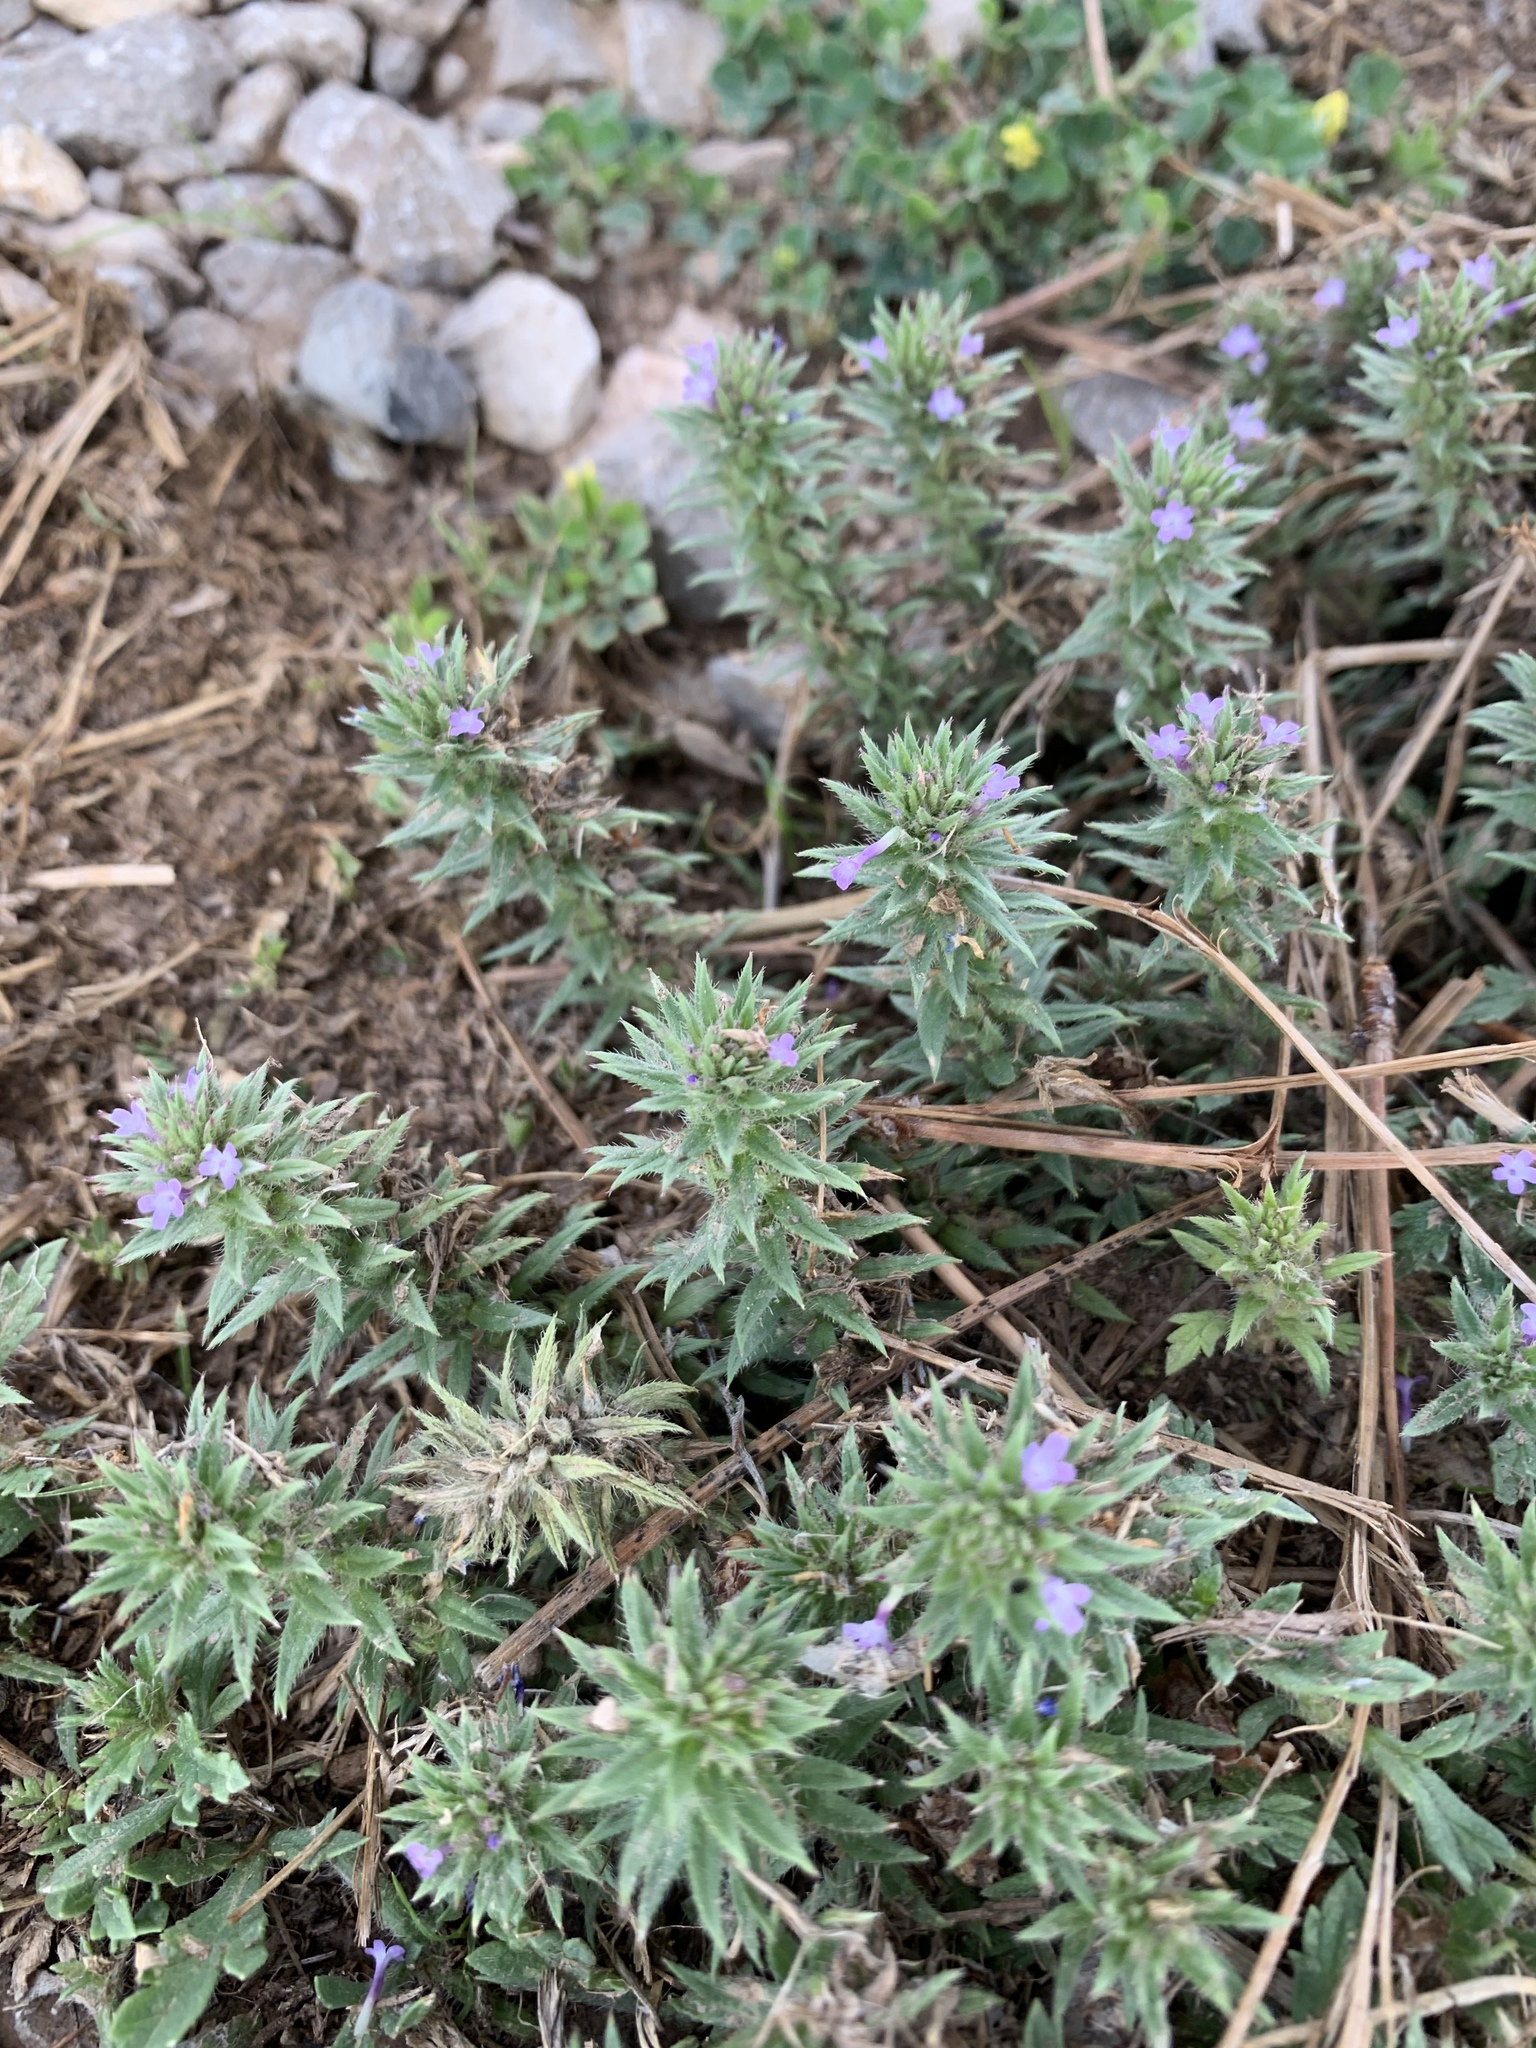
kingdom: Plantae
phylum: Tracheophyta
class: Magnoliopsida
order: Lamiales
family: Verbenaceae
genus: Verbena
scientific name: Verbena bracteata
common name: Bracted vervain
